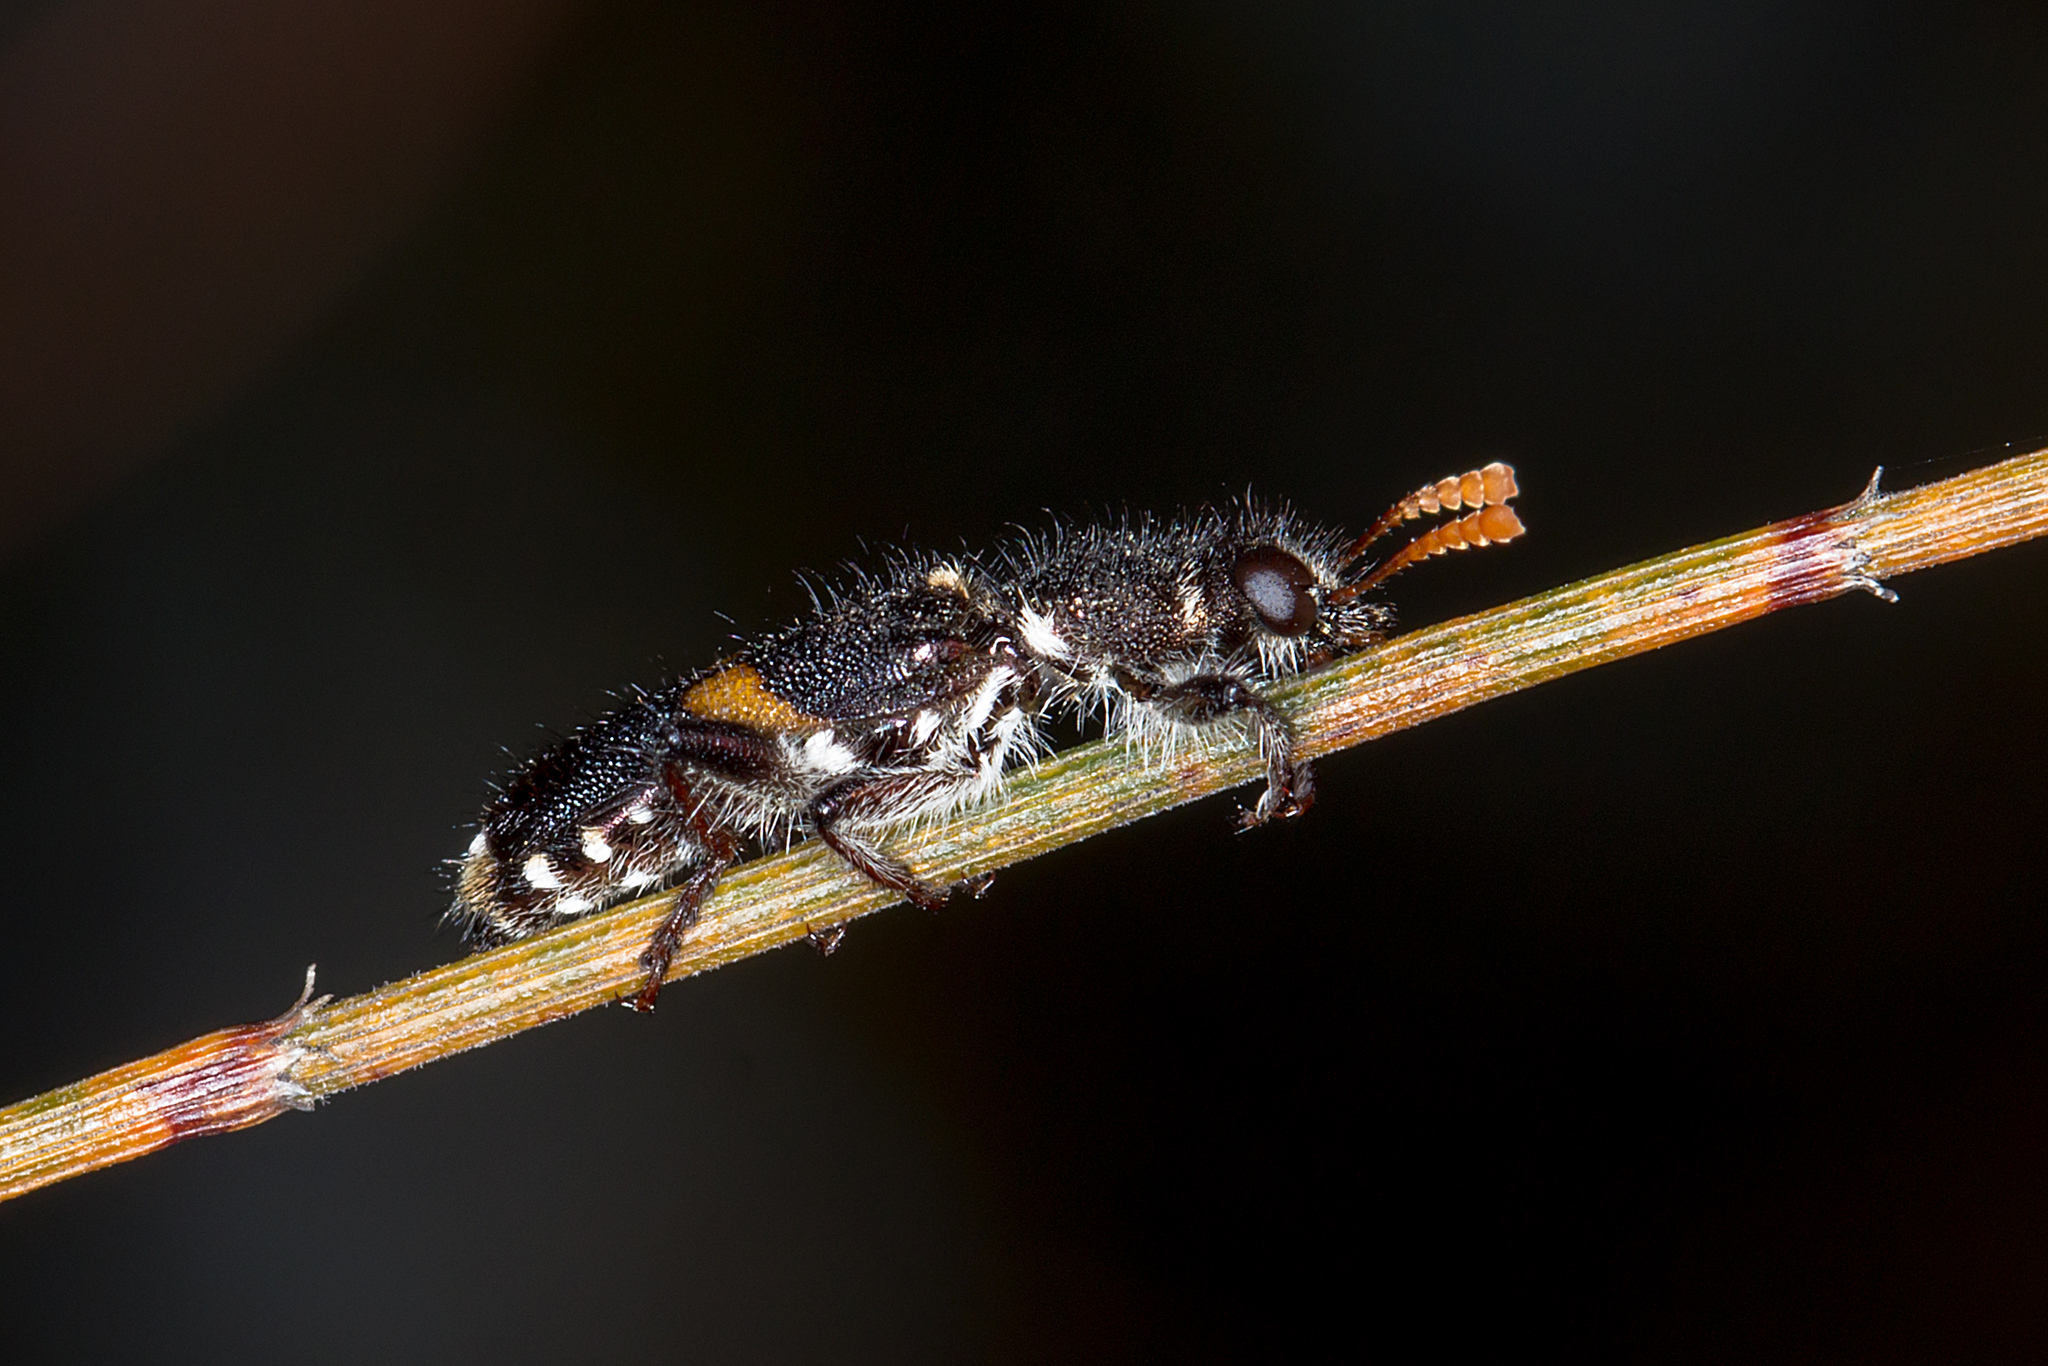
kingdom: Animalia
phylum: Arthropoda
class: Insecta
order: Coleoptera
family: Cleridae
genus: Eleale
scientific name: Eleale
